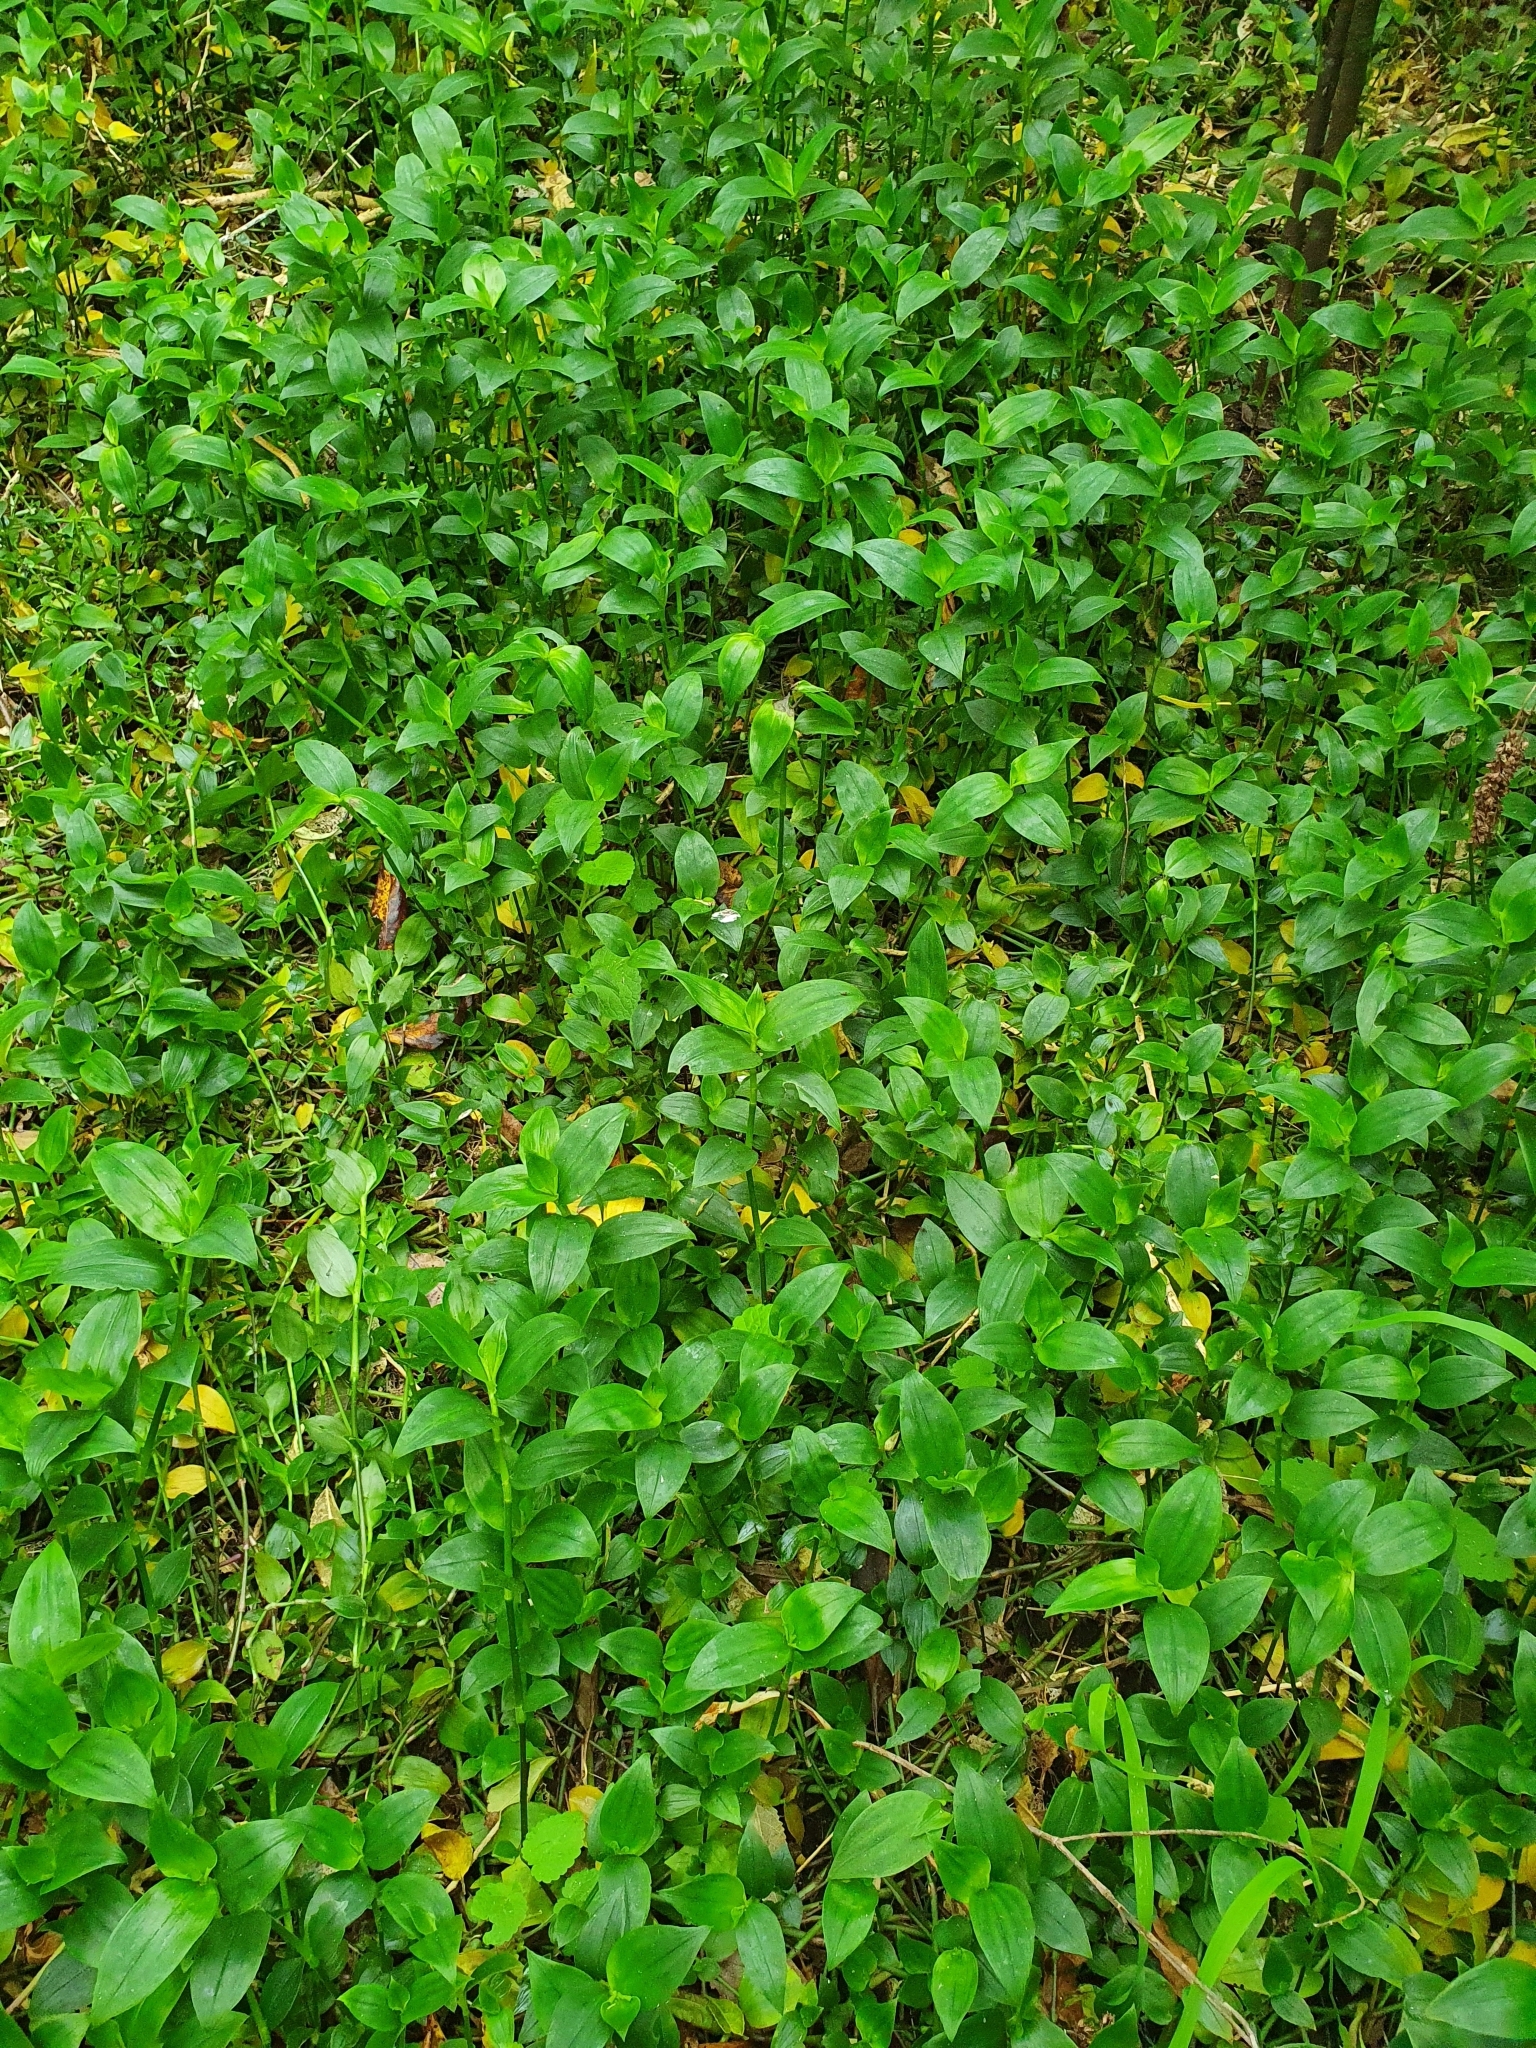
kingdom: Plantae
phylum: Tracheophyta
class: Liliopsida
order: Commelinales
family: Commelinaceae
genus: Tradescantia
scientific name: Tradescantia fluminensis
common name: Wandering-jew
